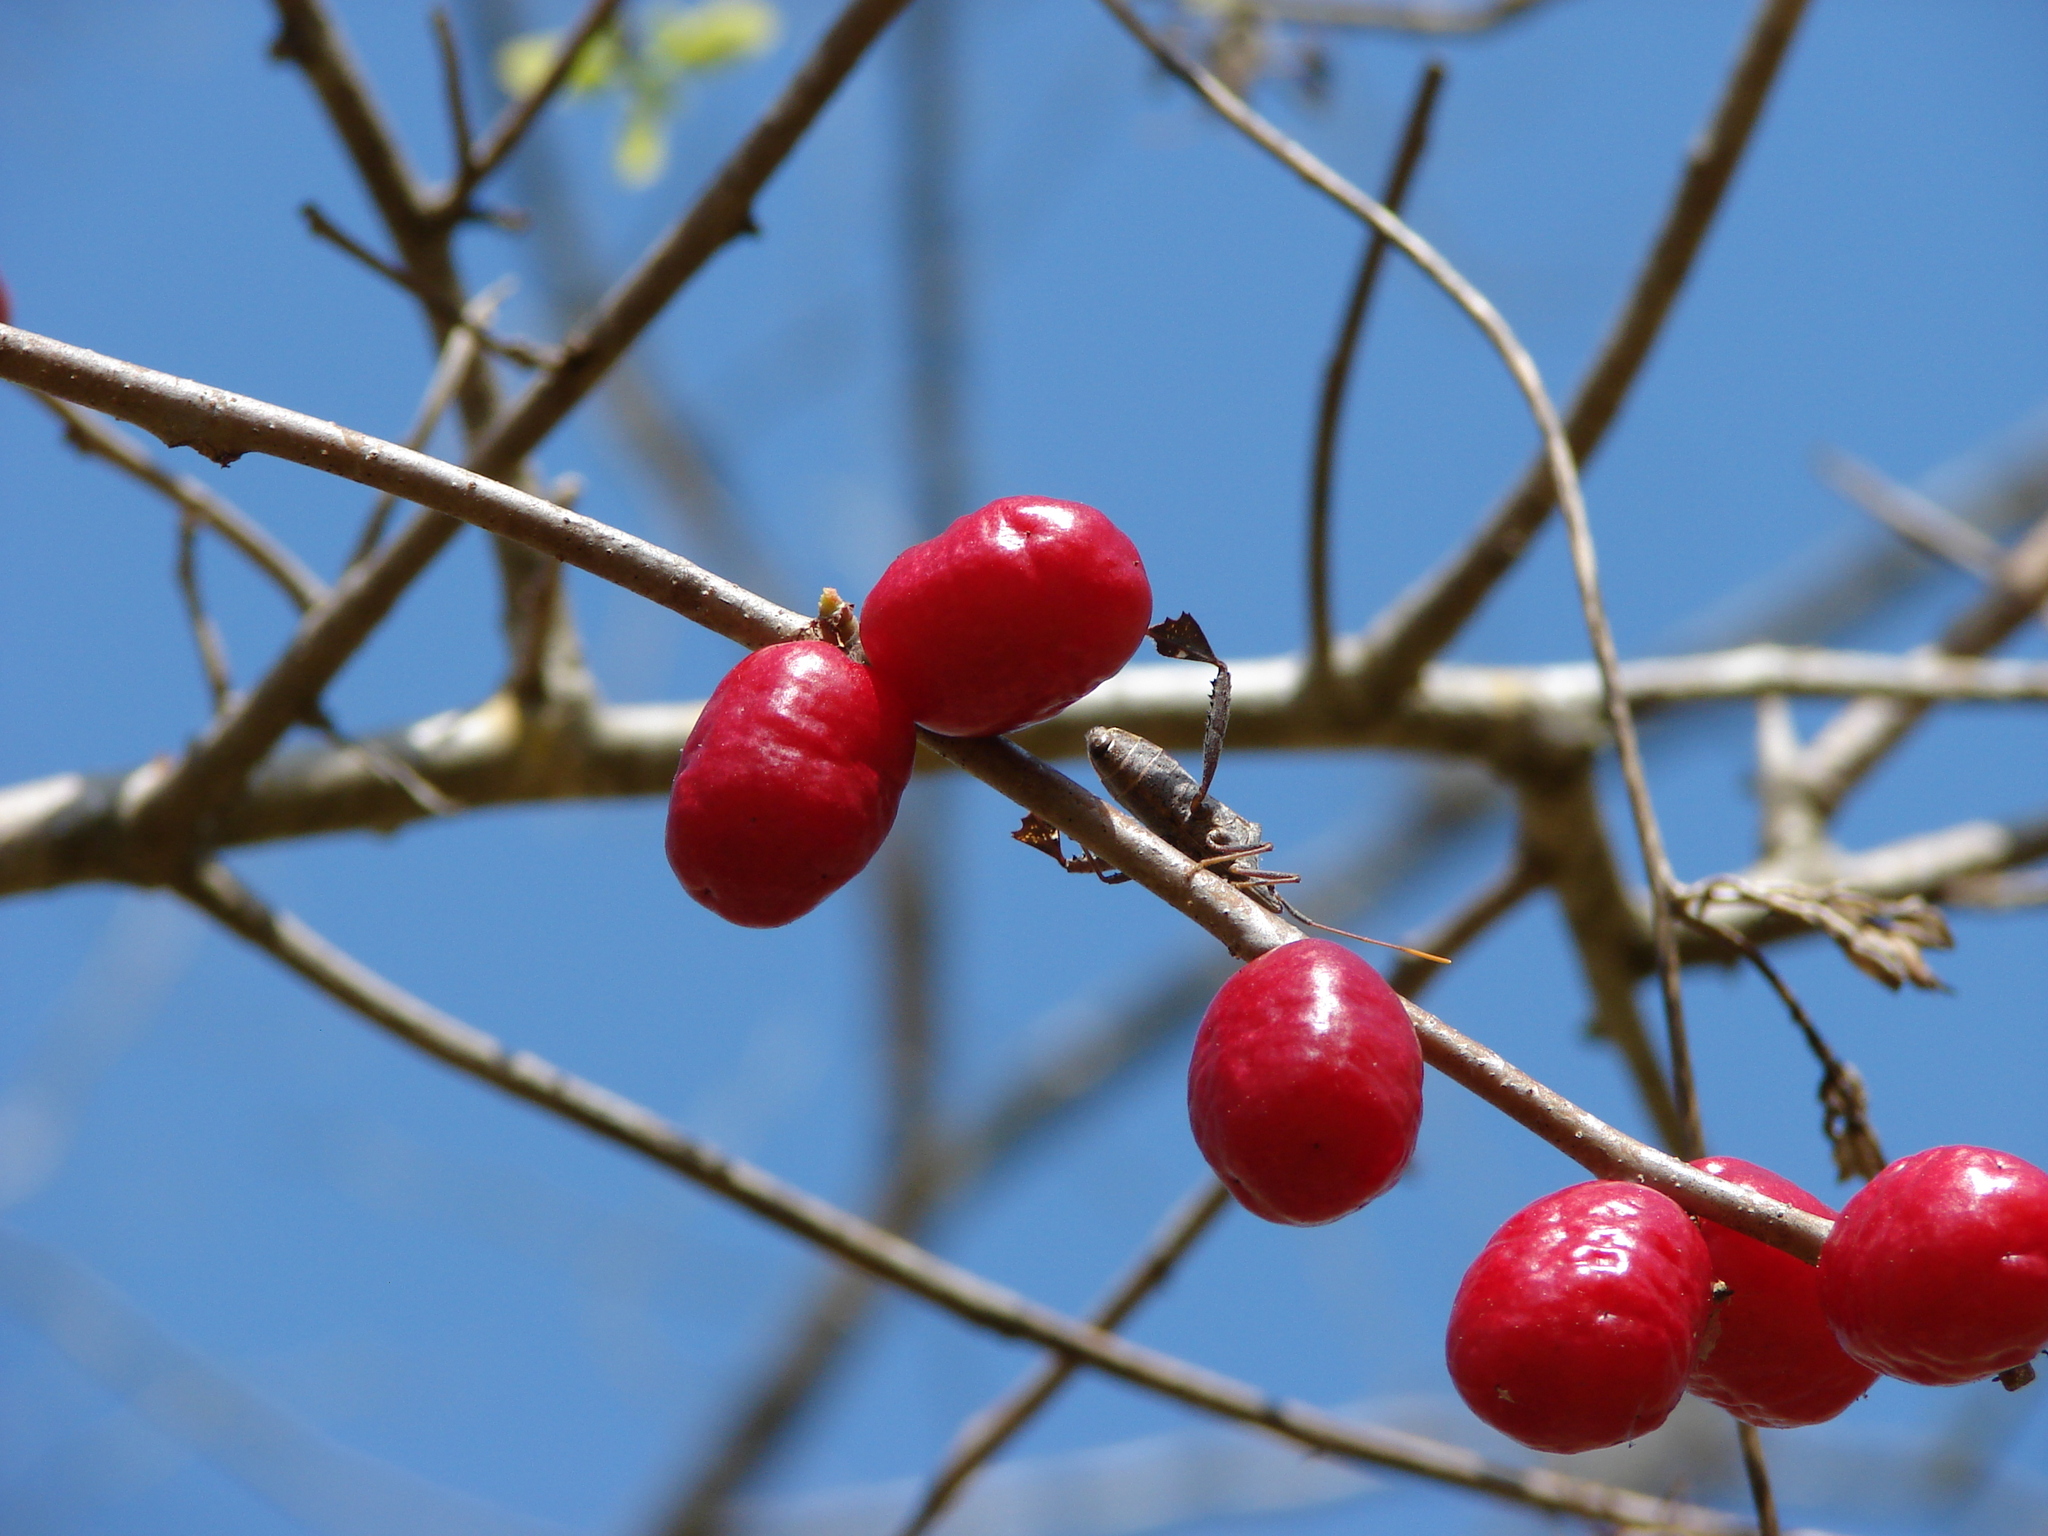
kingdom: Plantae
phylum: Tracheophyta
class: Magnoliopsida
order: Sapindales
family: Anacardiaceae
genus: Spondias
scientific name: Spondias purpurea
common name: Purple mombin
